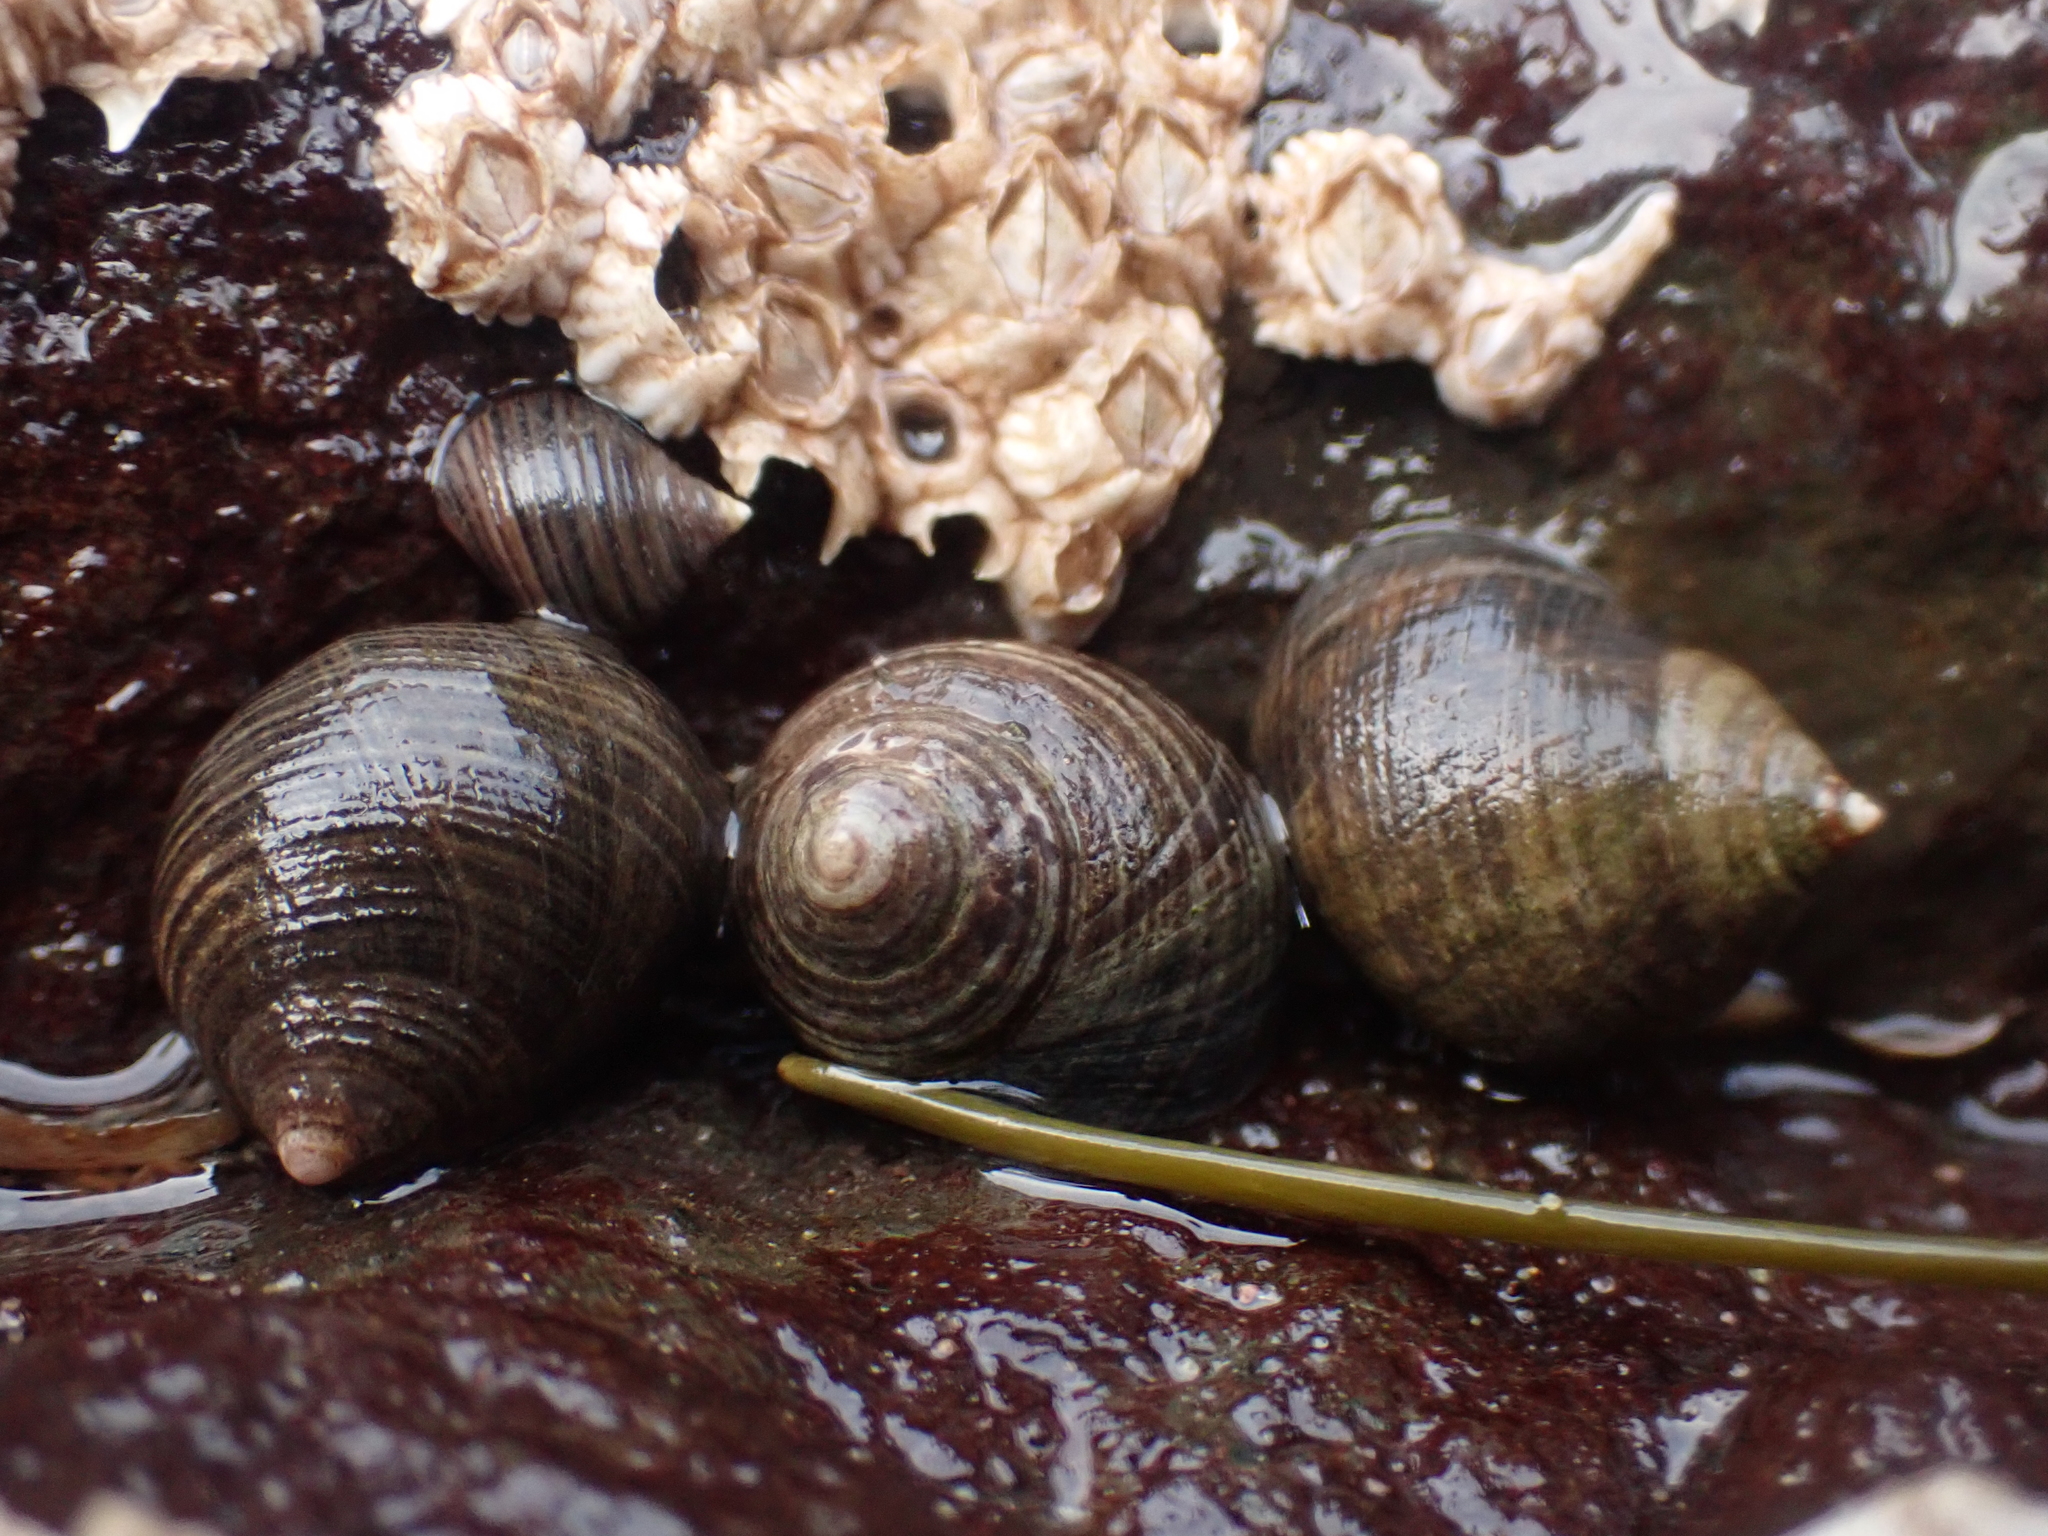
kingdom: Animalia
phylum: Mollusca
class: Gastropoda
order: Littorinimorpha
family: Littorinidae
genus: Littorina
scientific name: Littorina littorea
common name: Common periwinkle
